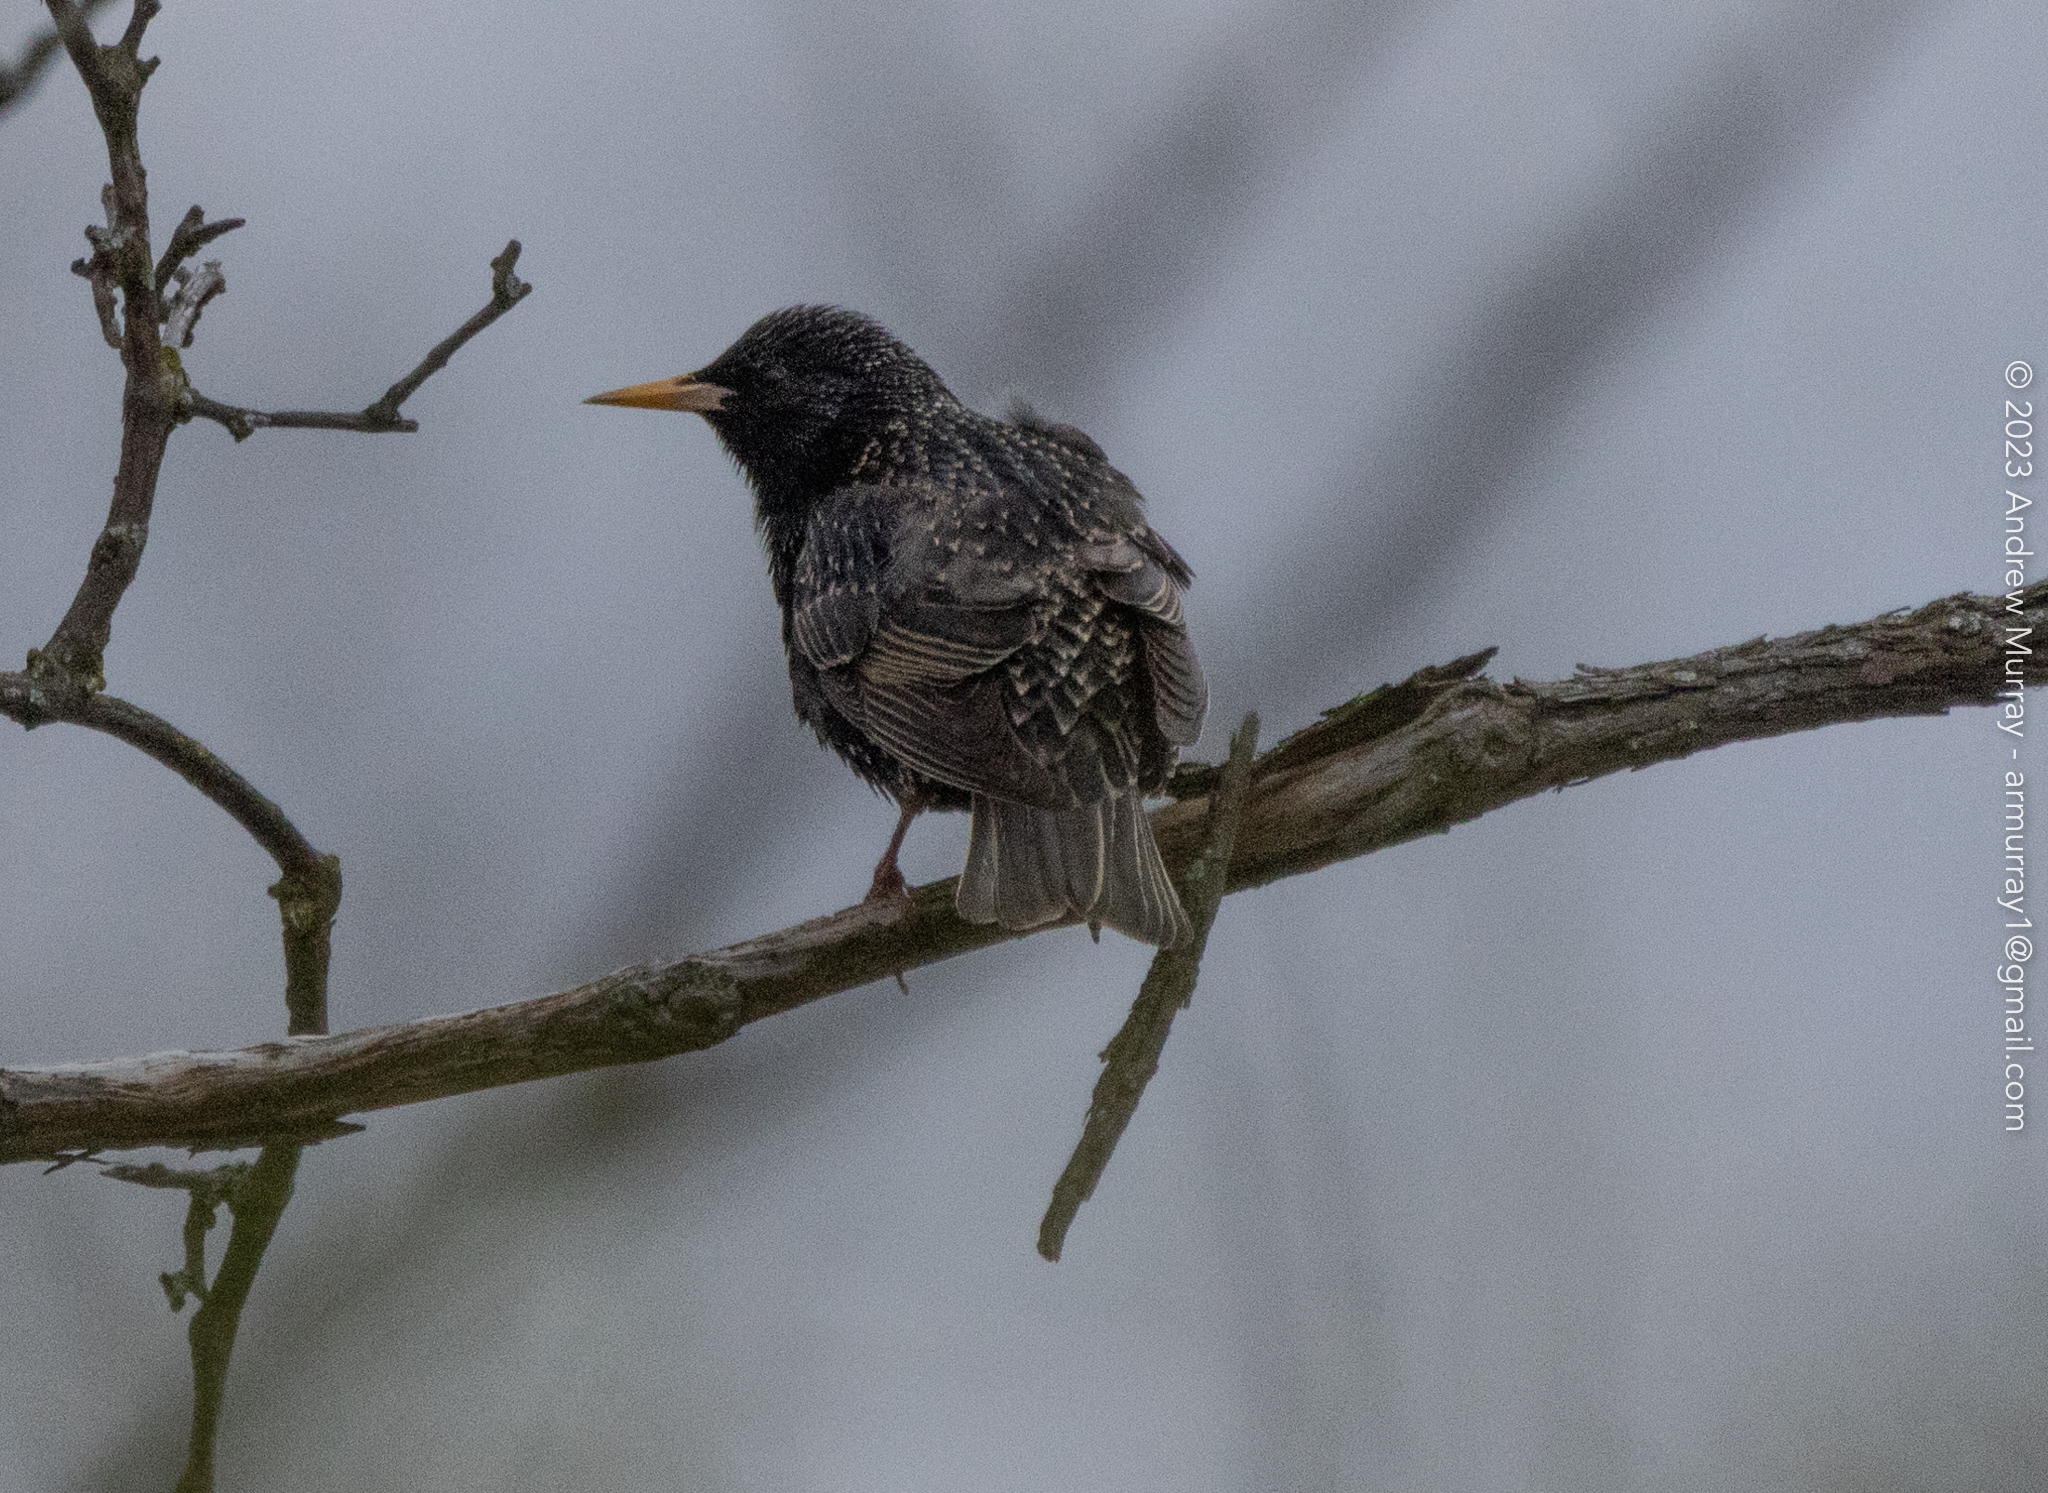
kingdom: Animalia
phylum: Chordata
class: Aves
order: Passeriformes
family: Sturnidae
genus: Sturnus
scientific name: Sturnus vulgaris
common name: Common starling
